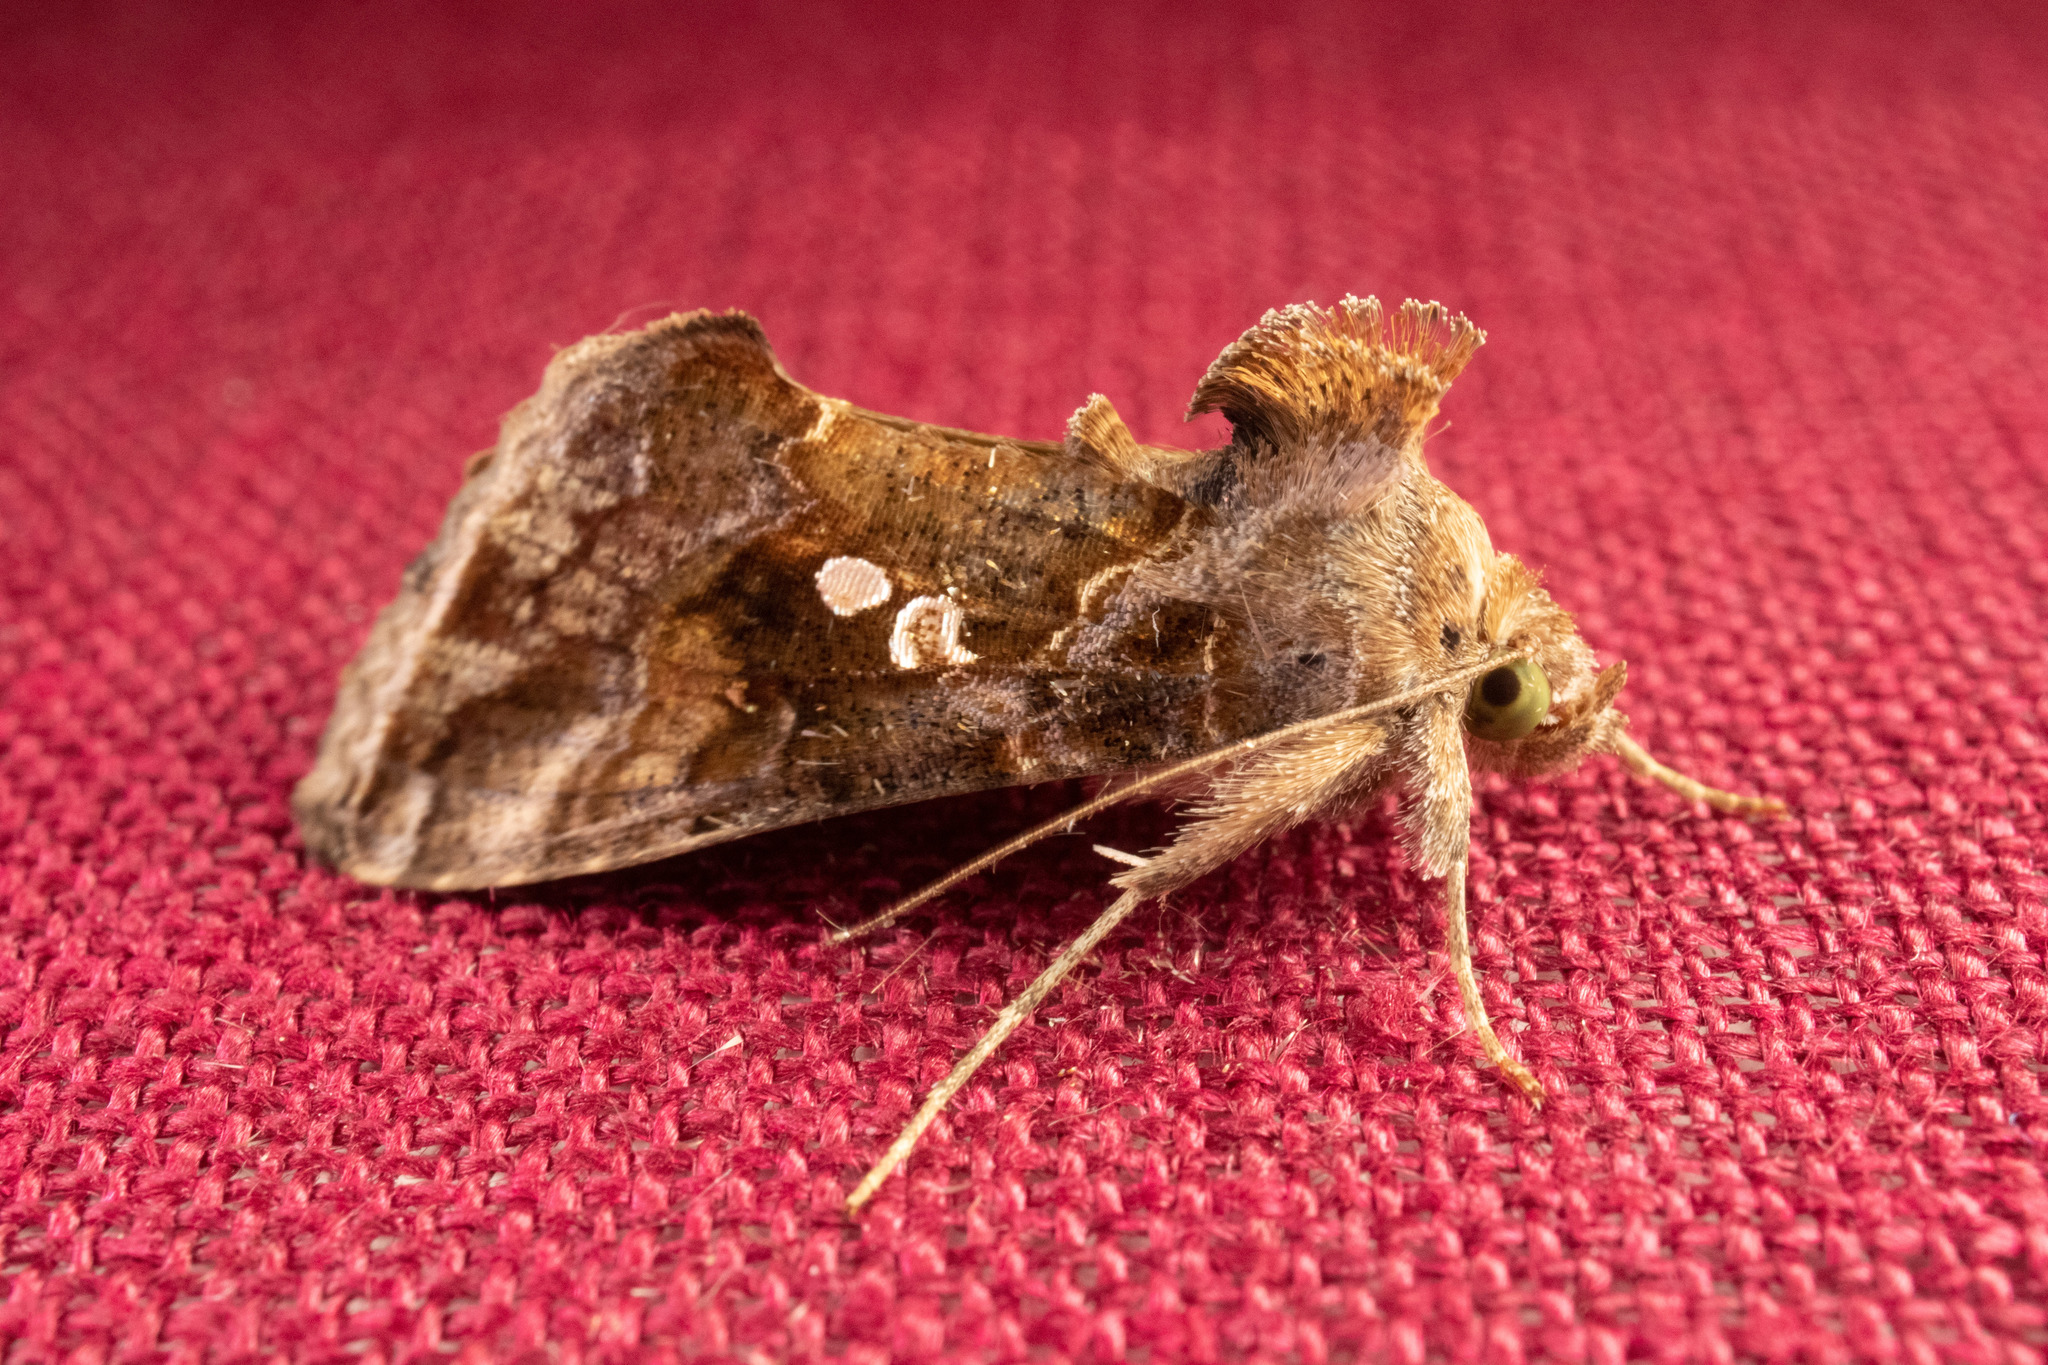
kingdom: Animalia
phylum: Arthropoda
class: Insecta
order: Lepidoptera
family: Noctuidae
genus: Chrysodeixis
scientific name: Chrysodeixis includens
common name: Cutworm moth
